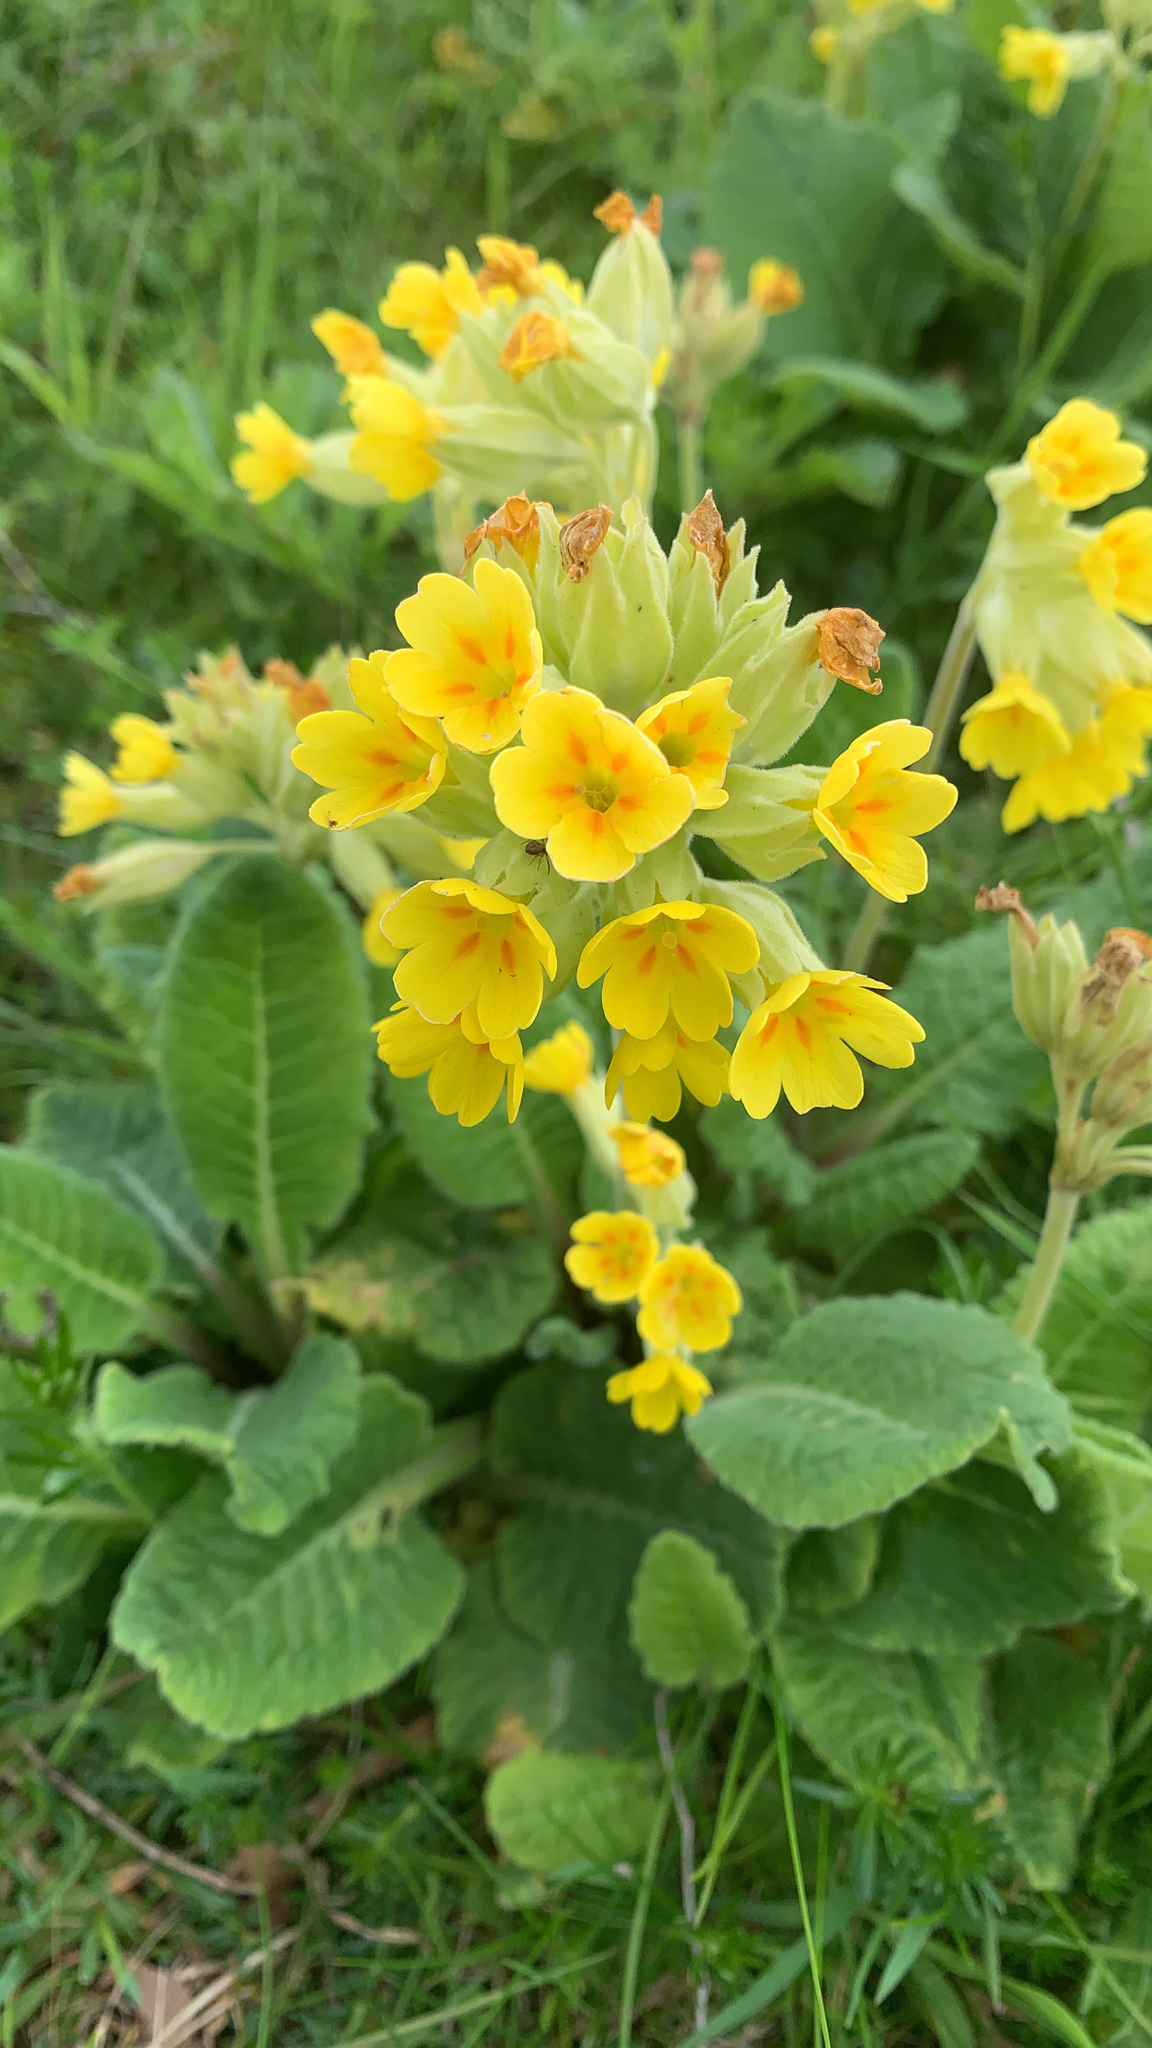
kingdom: Plantae
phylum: Tracheophyta
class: Magnoliopsida
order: Ericales
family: Primulaceae
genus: Primula
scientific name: Primula veris
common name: Cowslip
